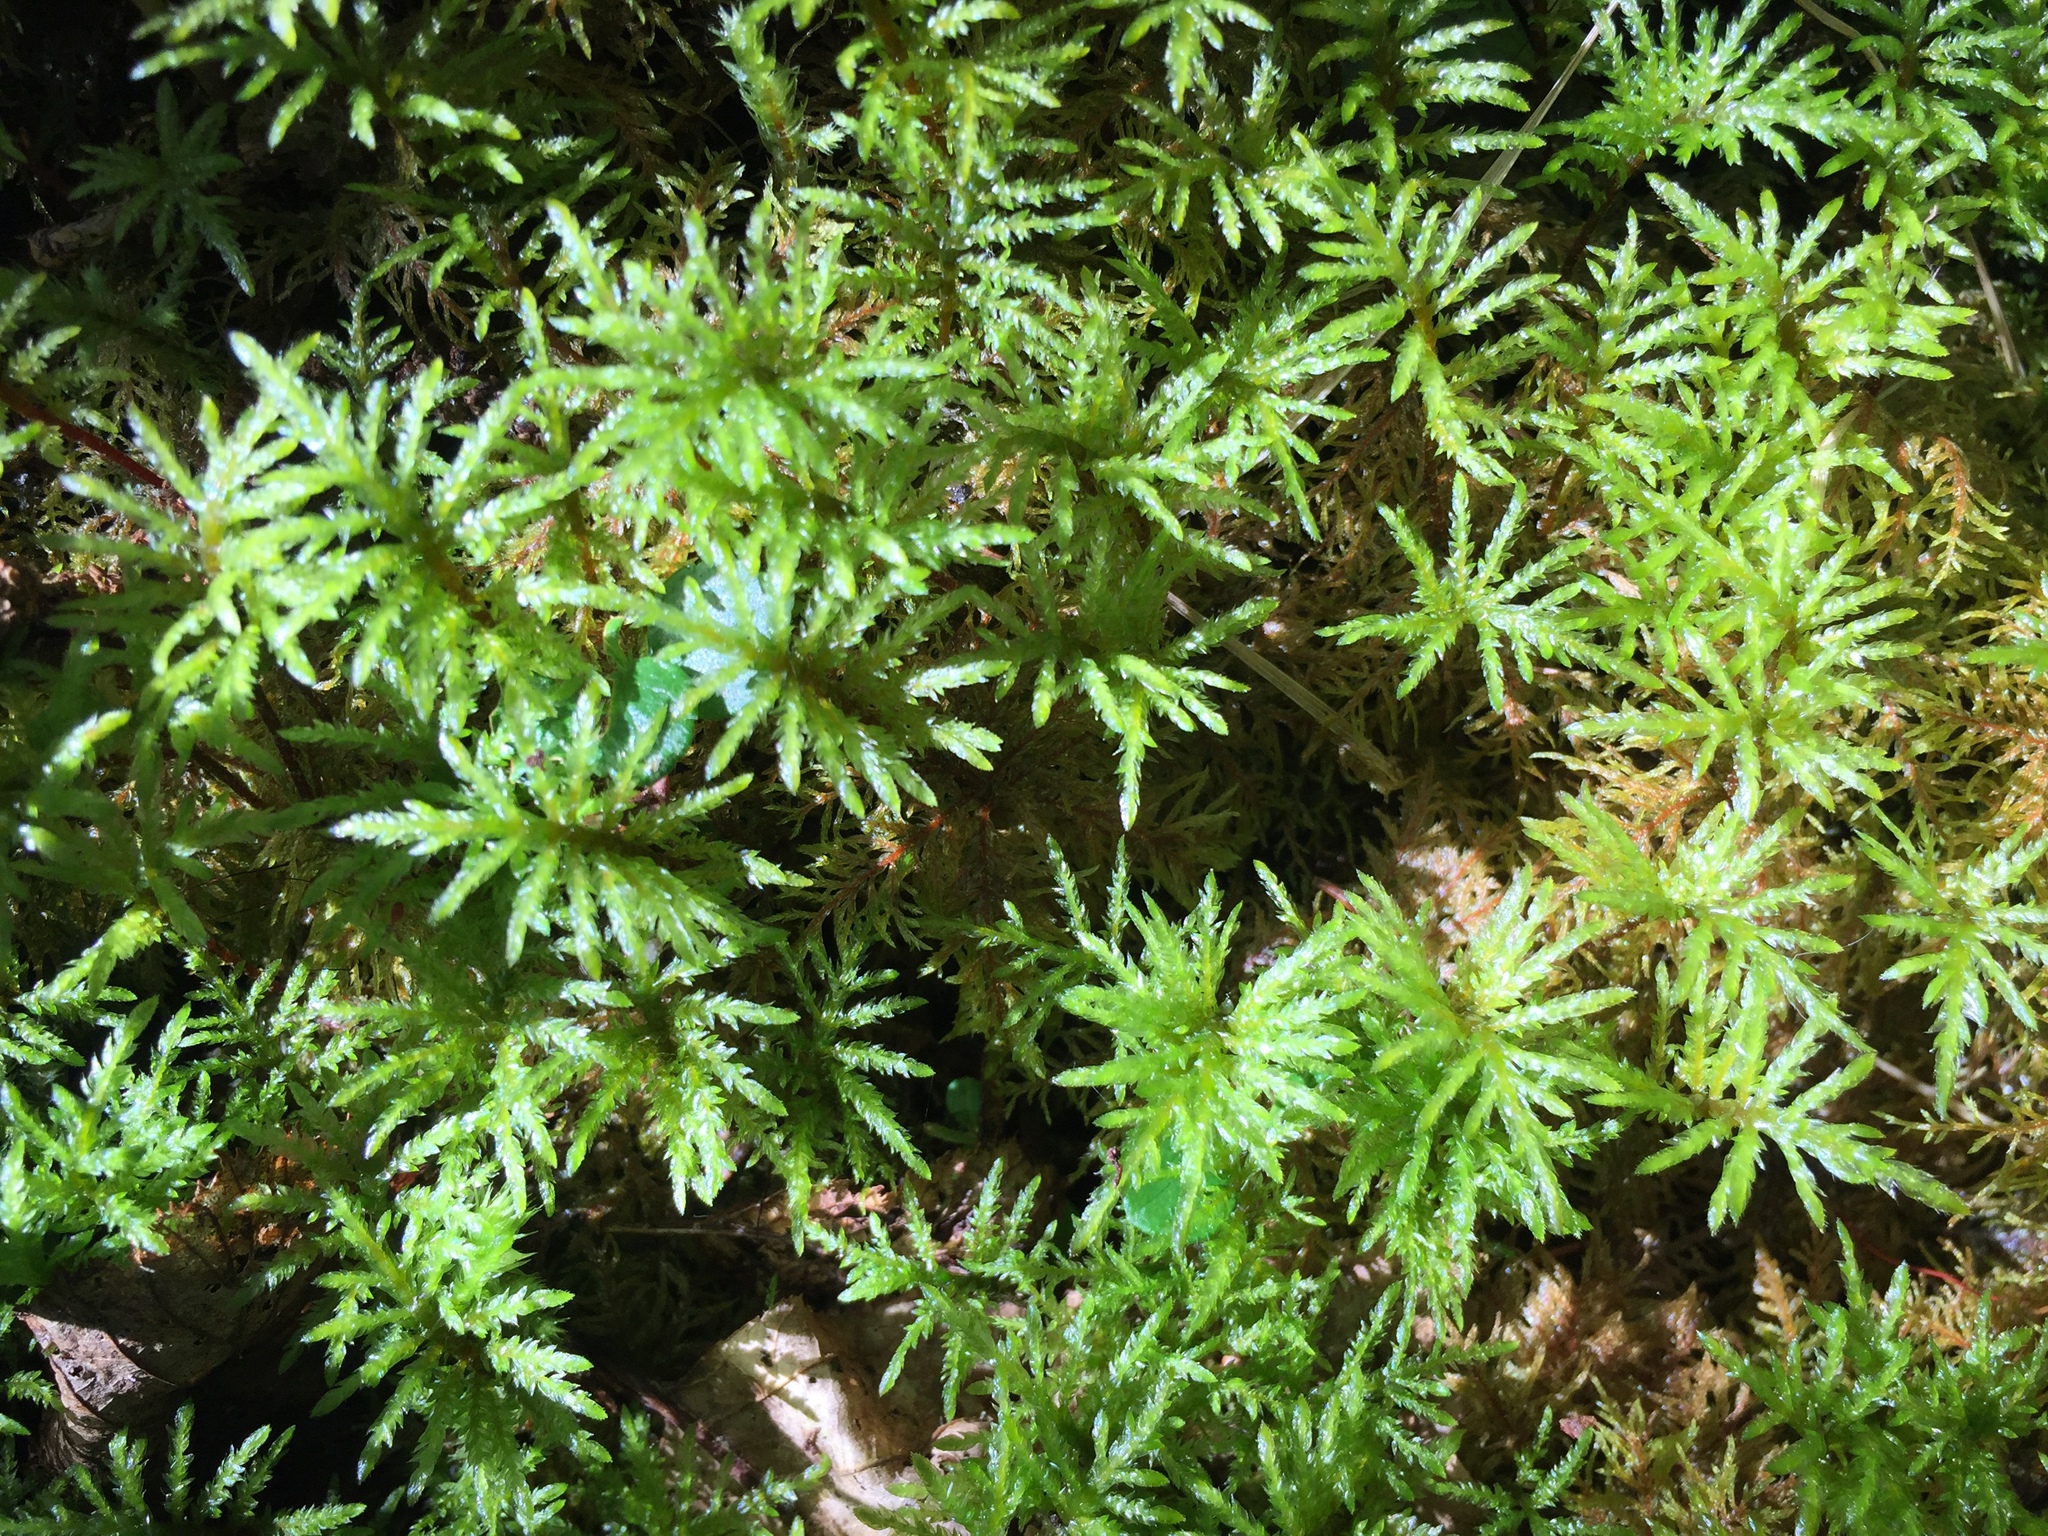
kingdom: Plantae
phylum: Bryophyta
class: Bryopsida
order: Hypnales
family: Hylocomiaceae
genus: Hylocomium
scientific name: Hylocomium splendens
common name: Stairstep moss
